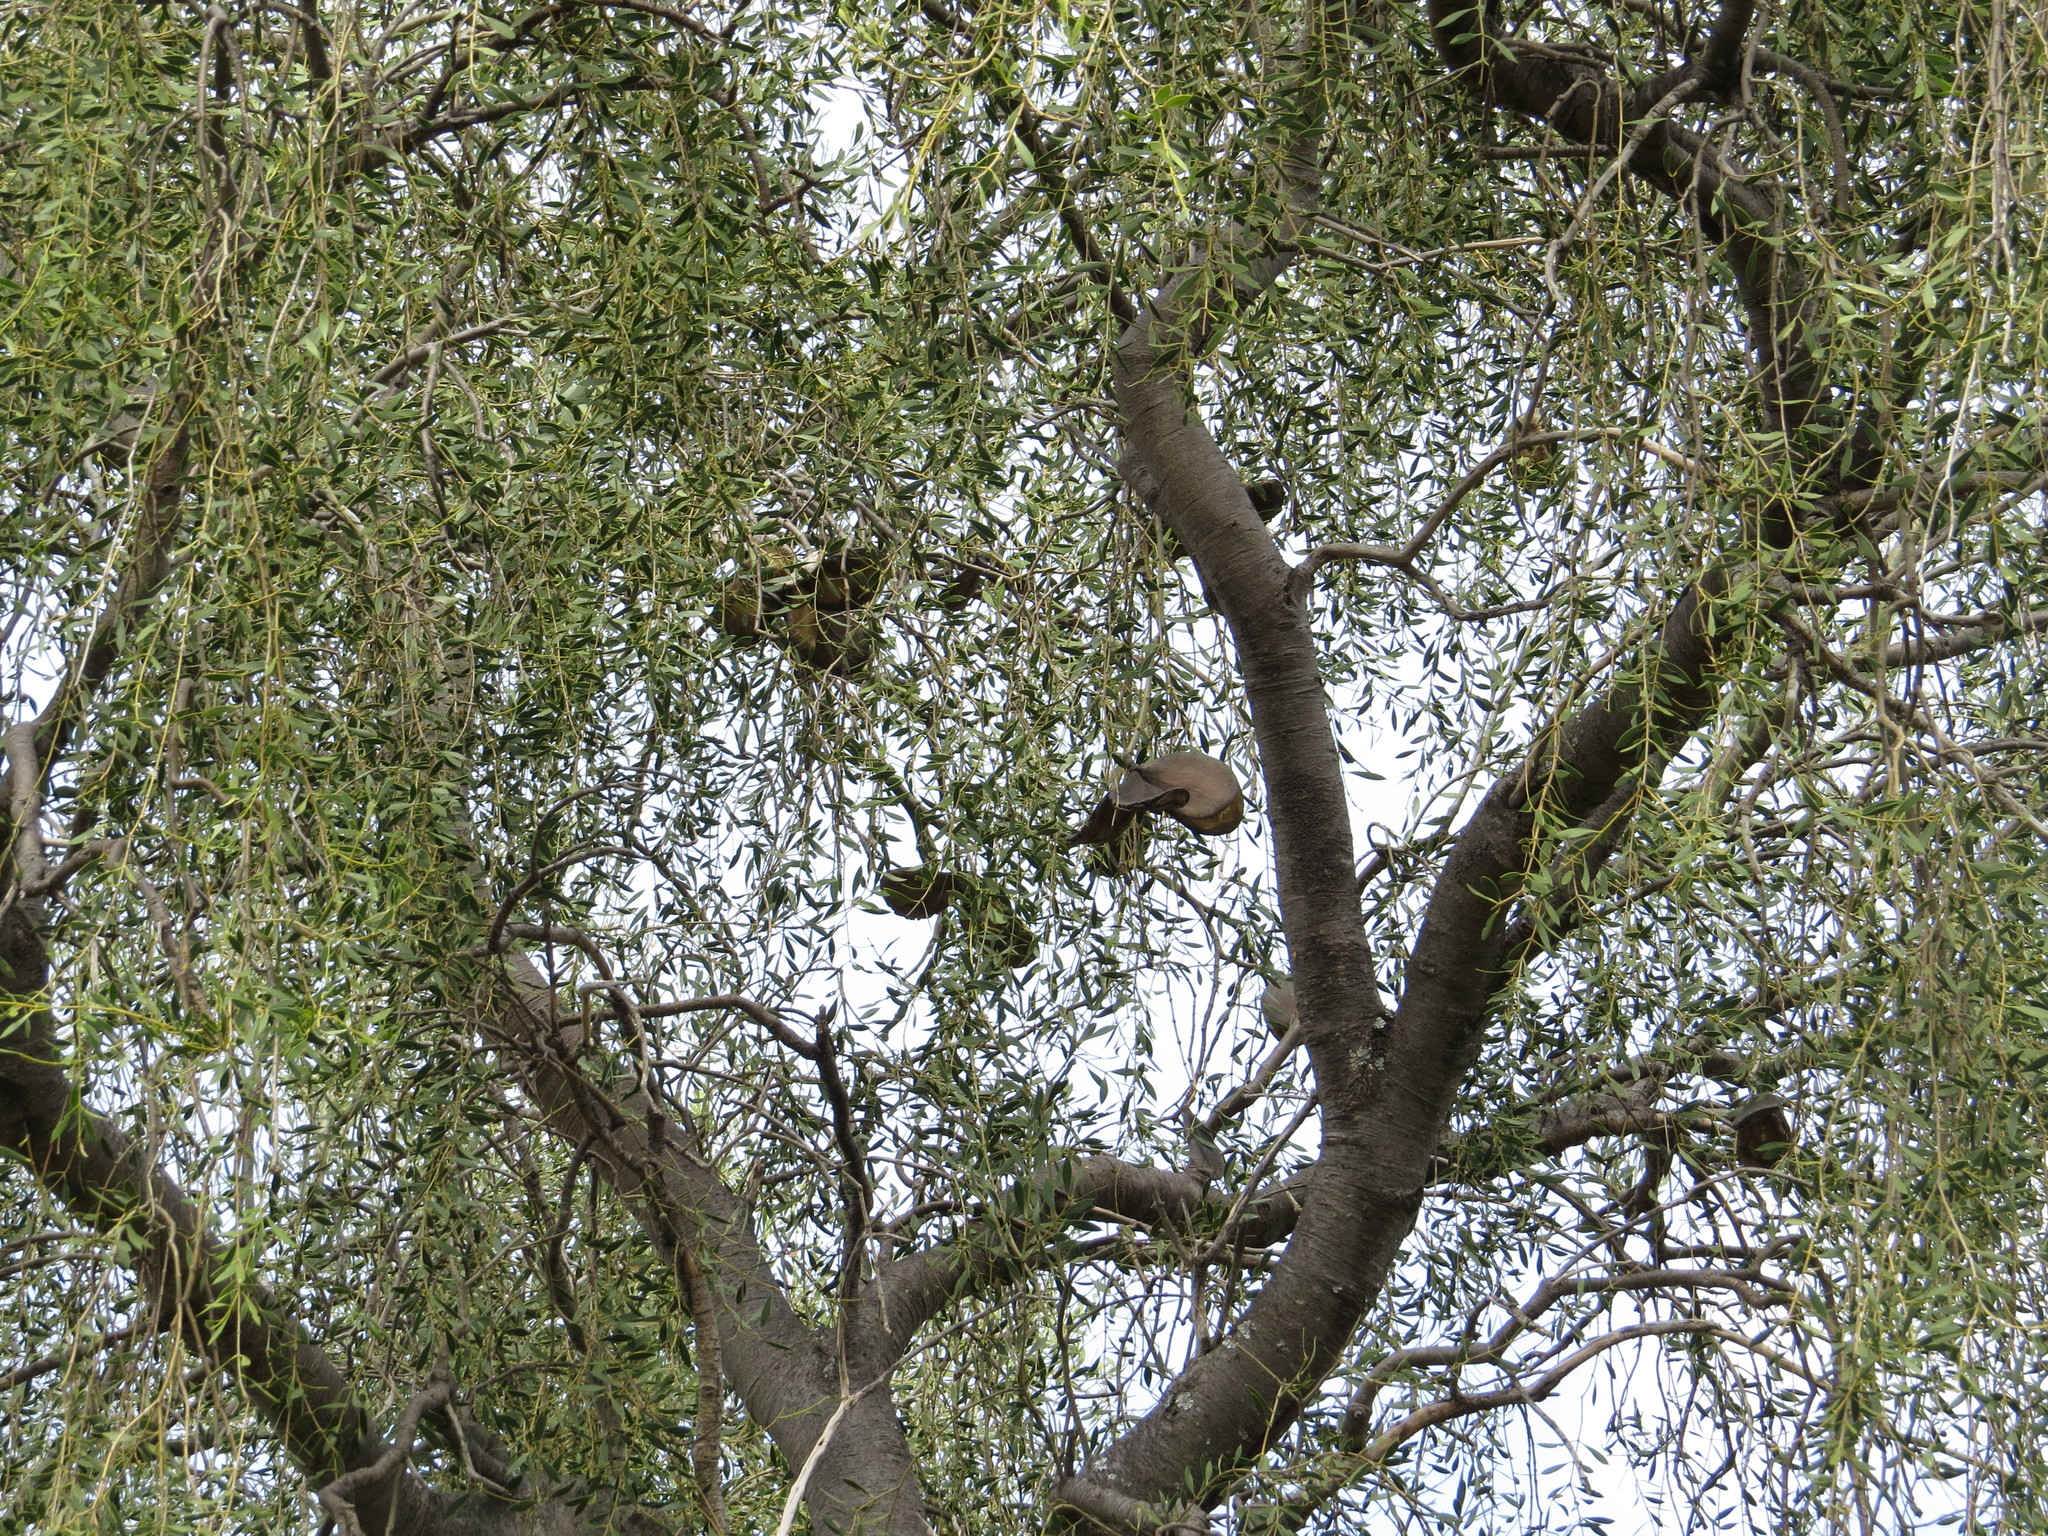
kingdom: Plantae
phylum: Tracheophyta
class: Magnoliopsida
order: Gentianales
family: Apocynaceae
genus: Aspidosperma
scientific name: Aspidosperma quebracho-blanco
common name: White quebracho
